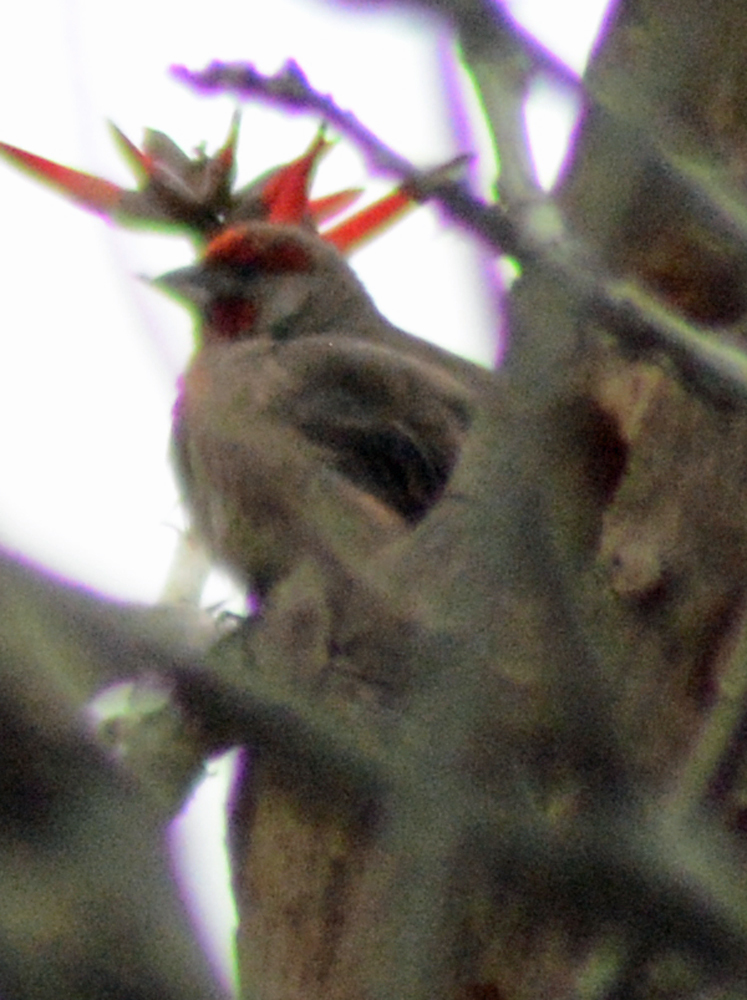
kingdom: Animalia
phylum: Chordata
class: Aves
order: Passeriformes
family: Fringillidae
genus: Haemorhous
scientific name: Haemorhous mexicanus
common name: House finch
